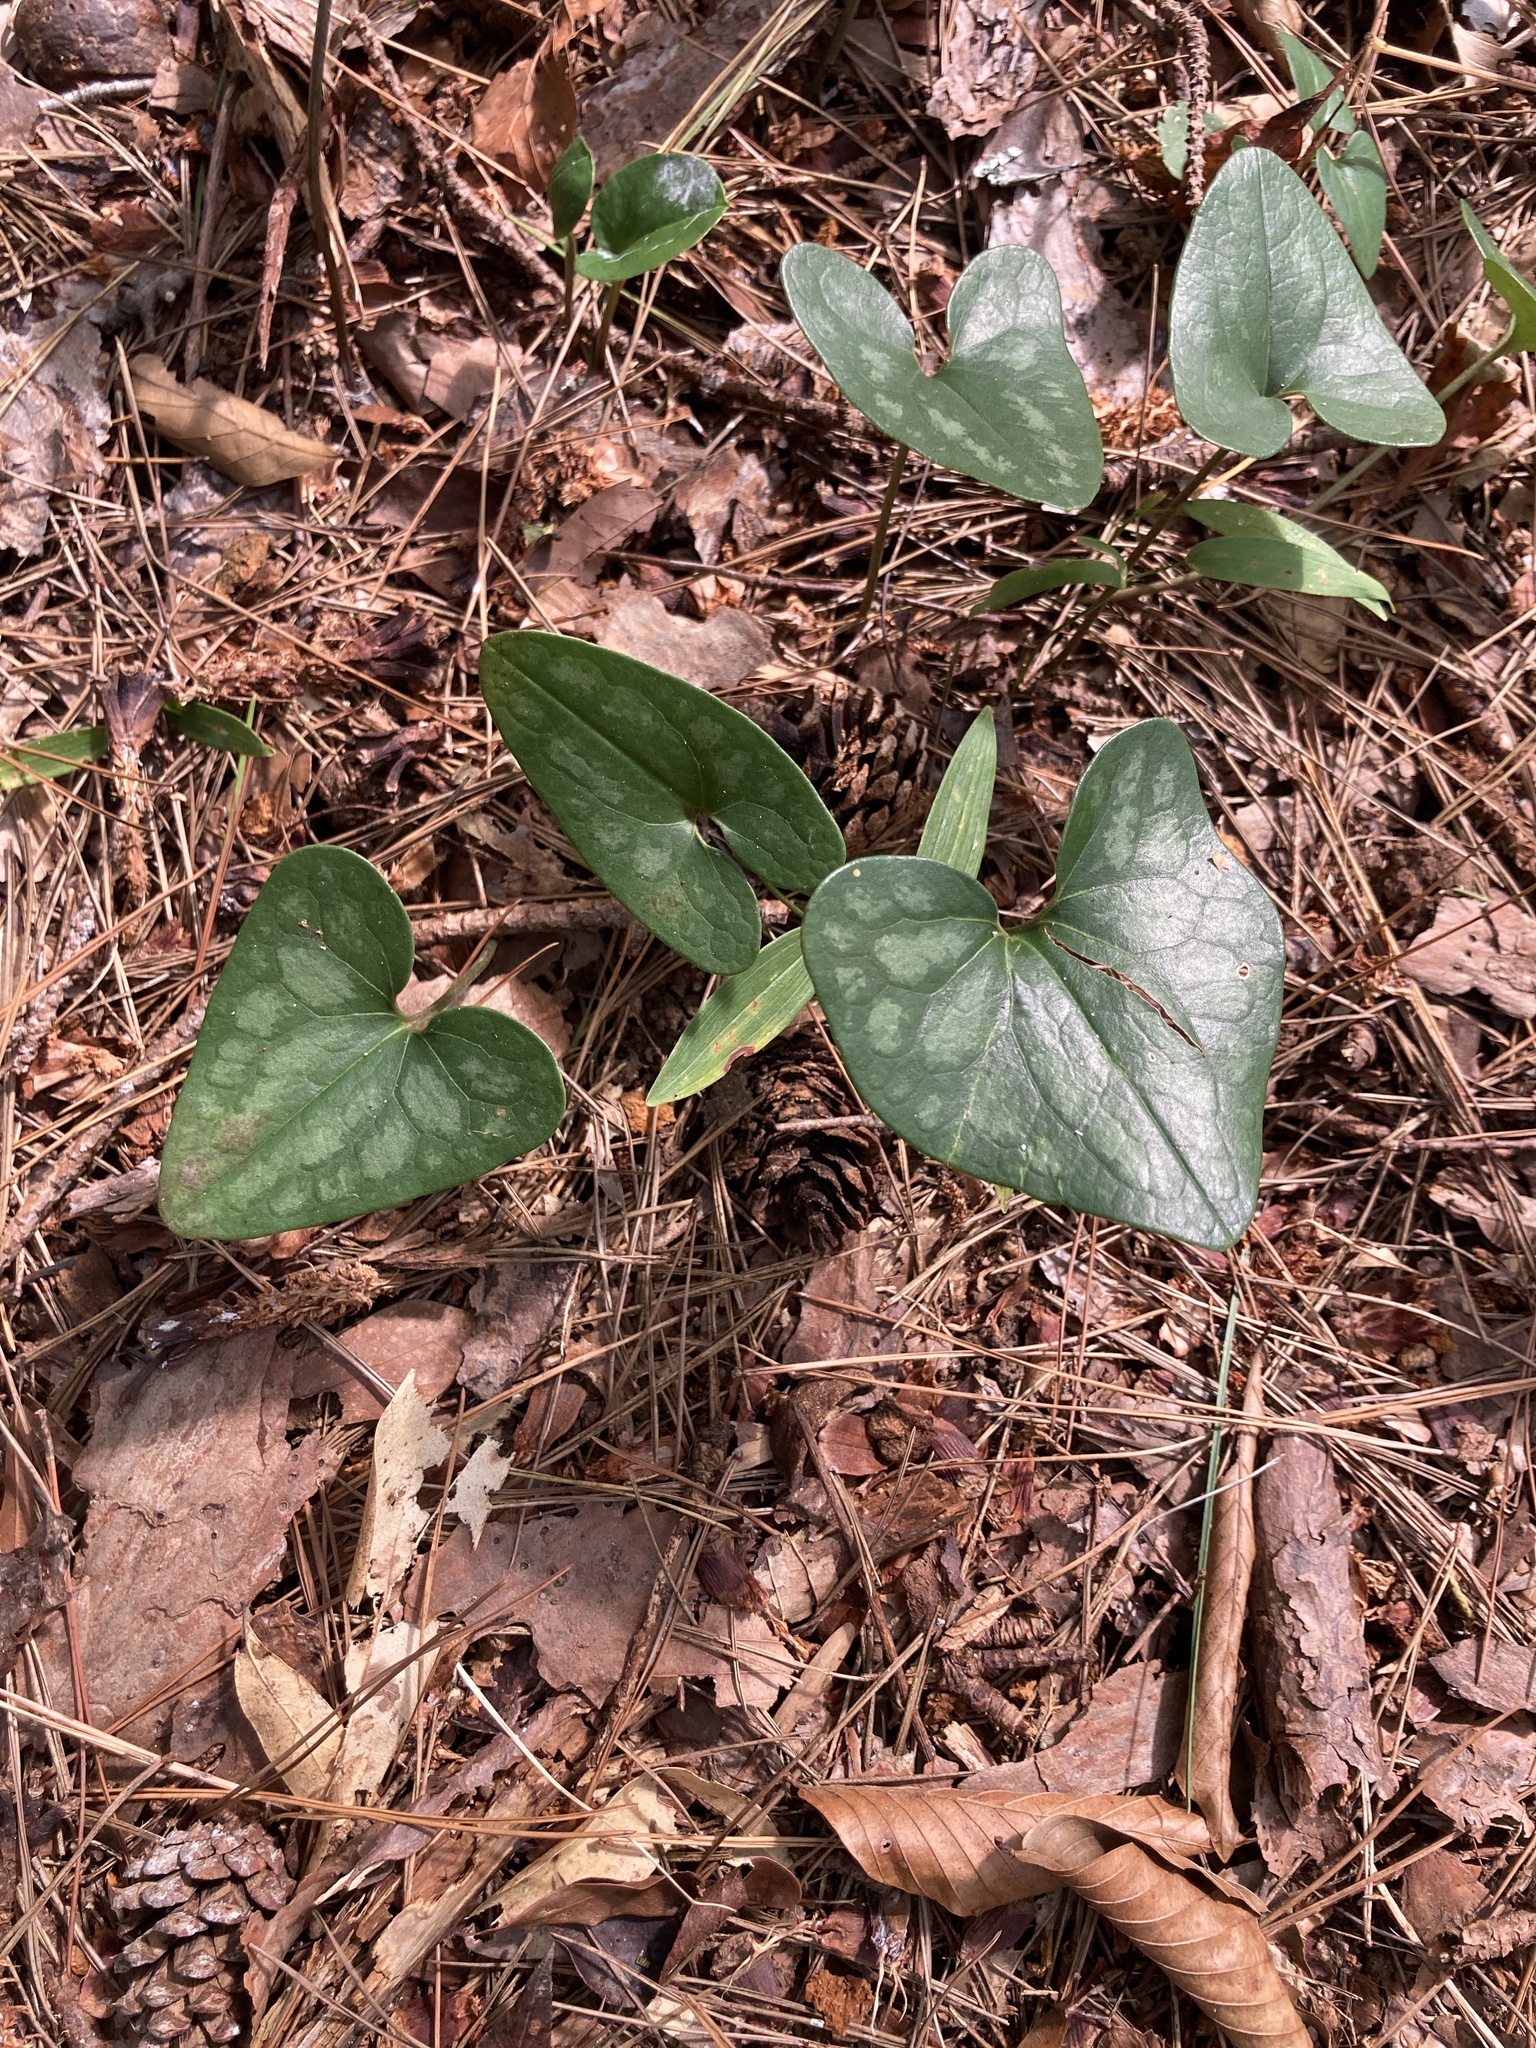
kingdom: Plantae
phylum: Tracheophyta
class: Magnoliopsida
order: Piperales
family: Aristolochiaceae
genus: Hexastylis
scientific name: Hexastylis arifolia
